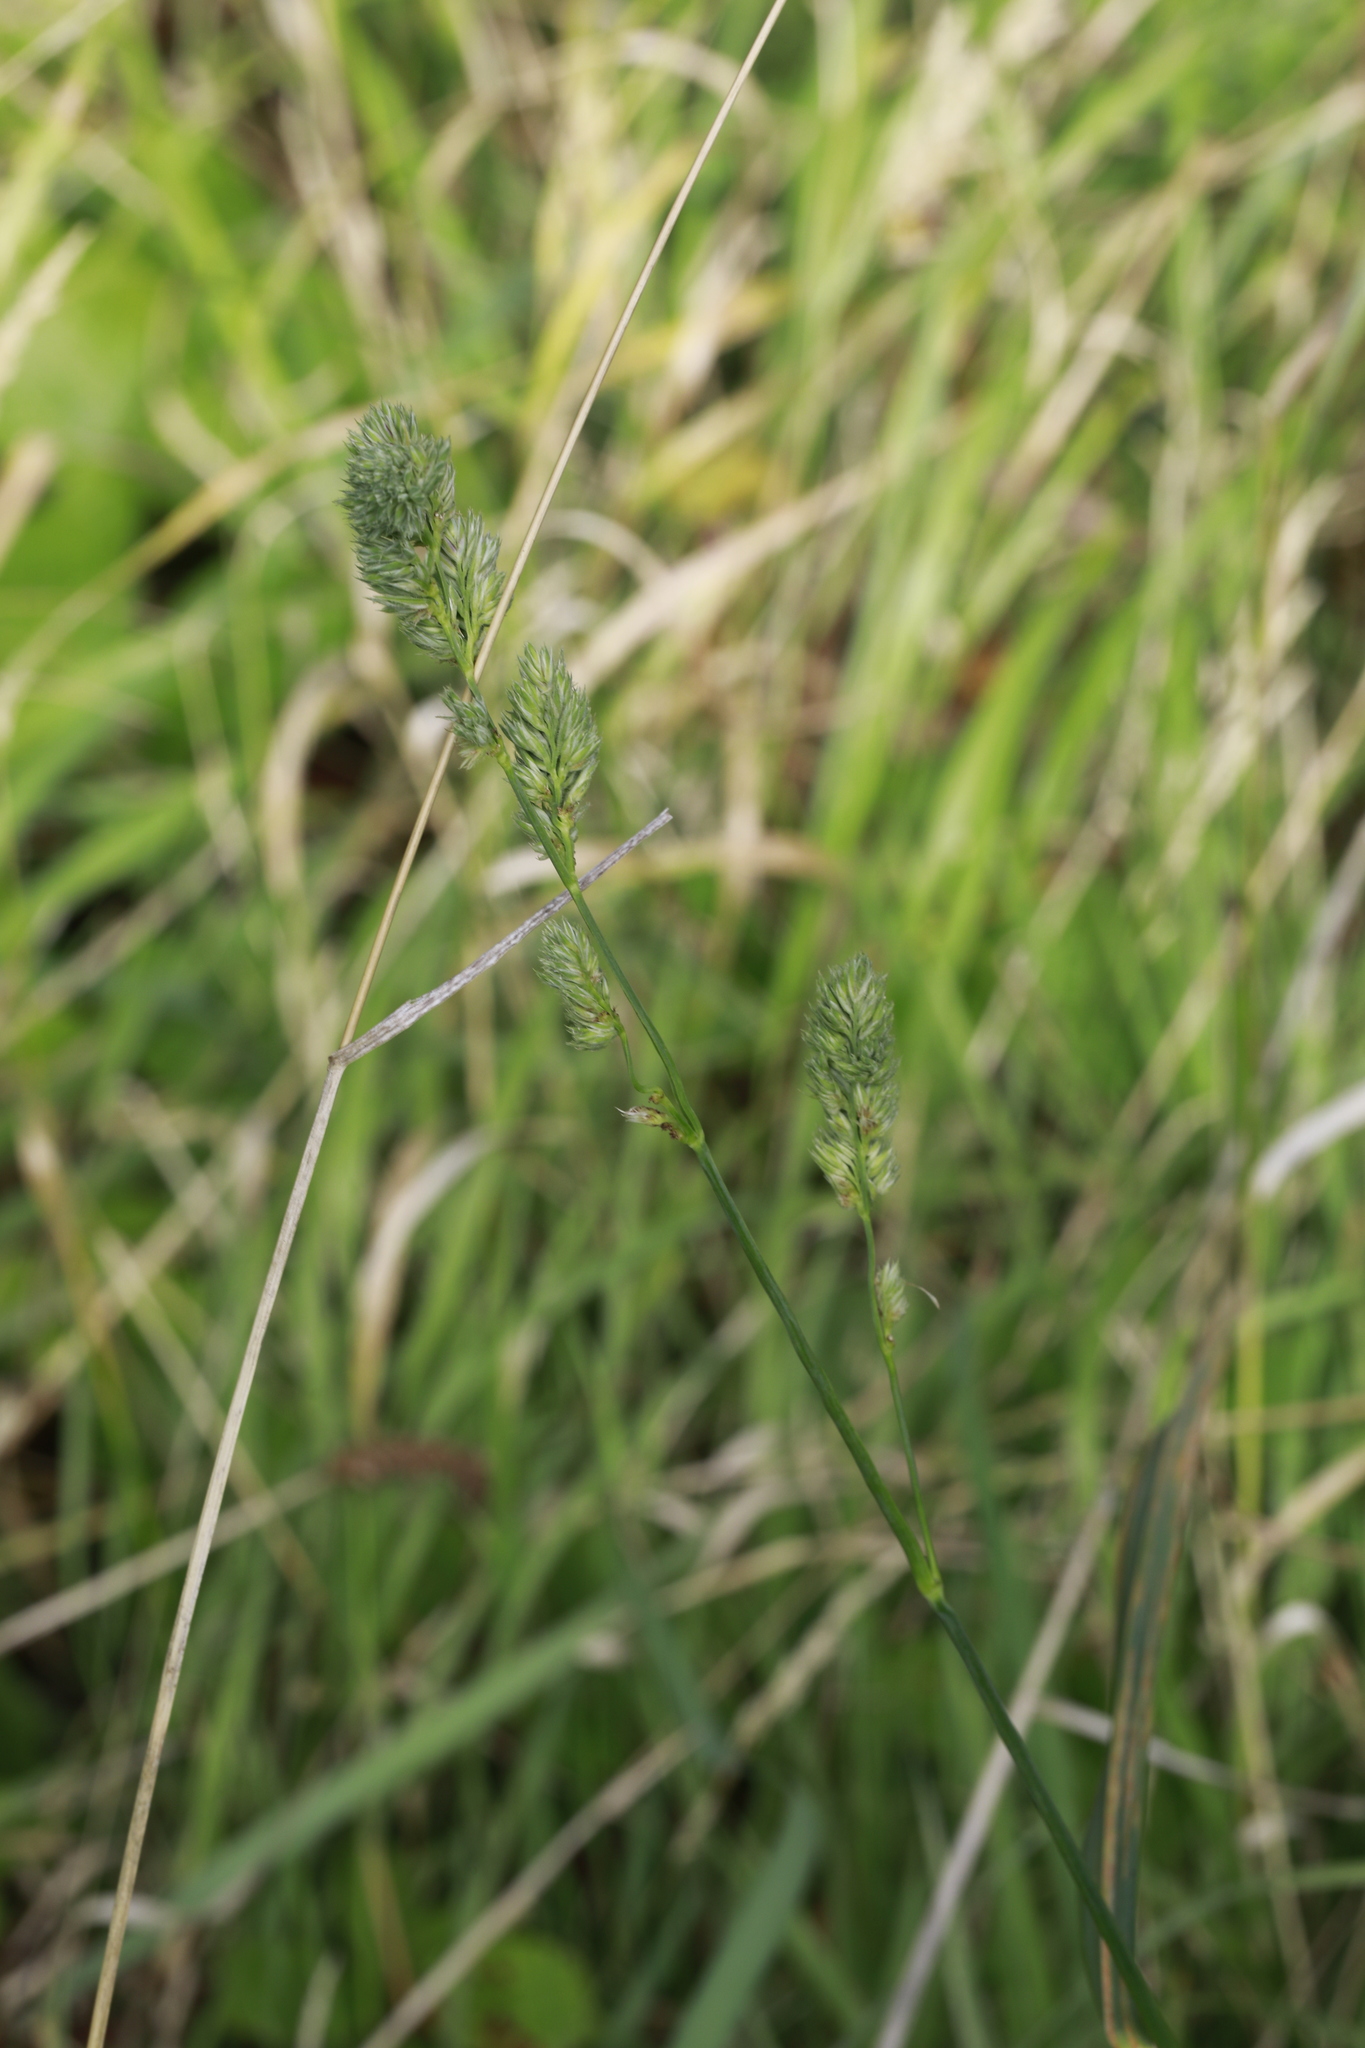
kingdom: Plantae
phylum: Tracheophyta
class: Liliopsida
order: Poales
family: Poaceae
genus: Dactylis
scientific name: Dactylis glomerata
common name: Orchardgrass
